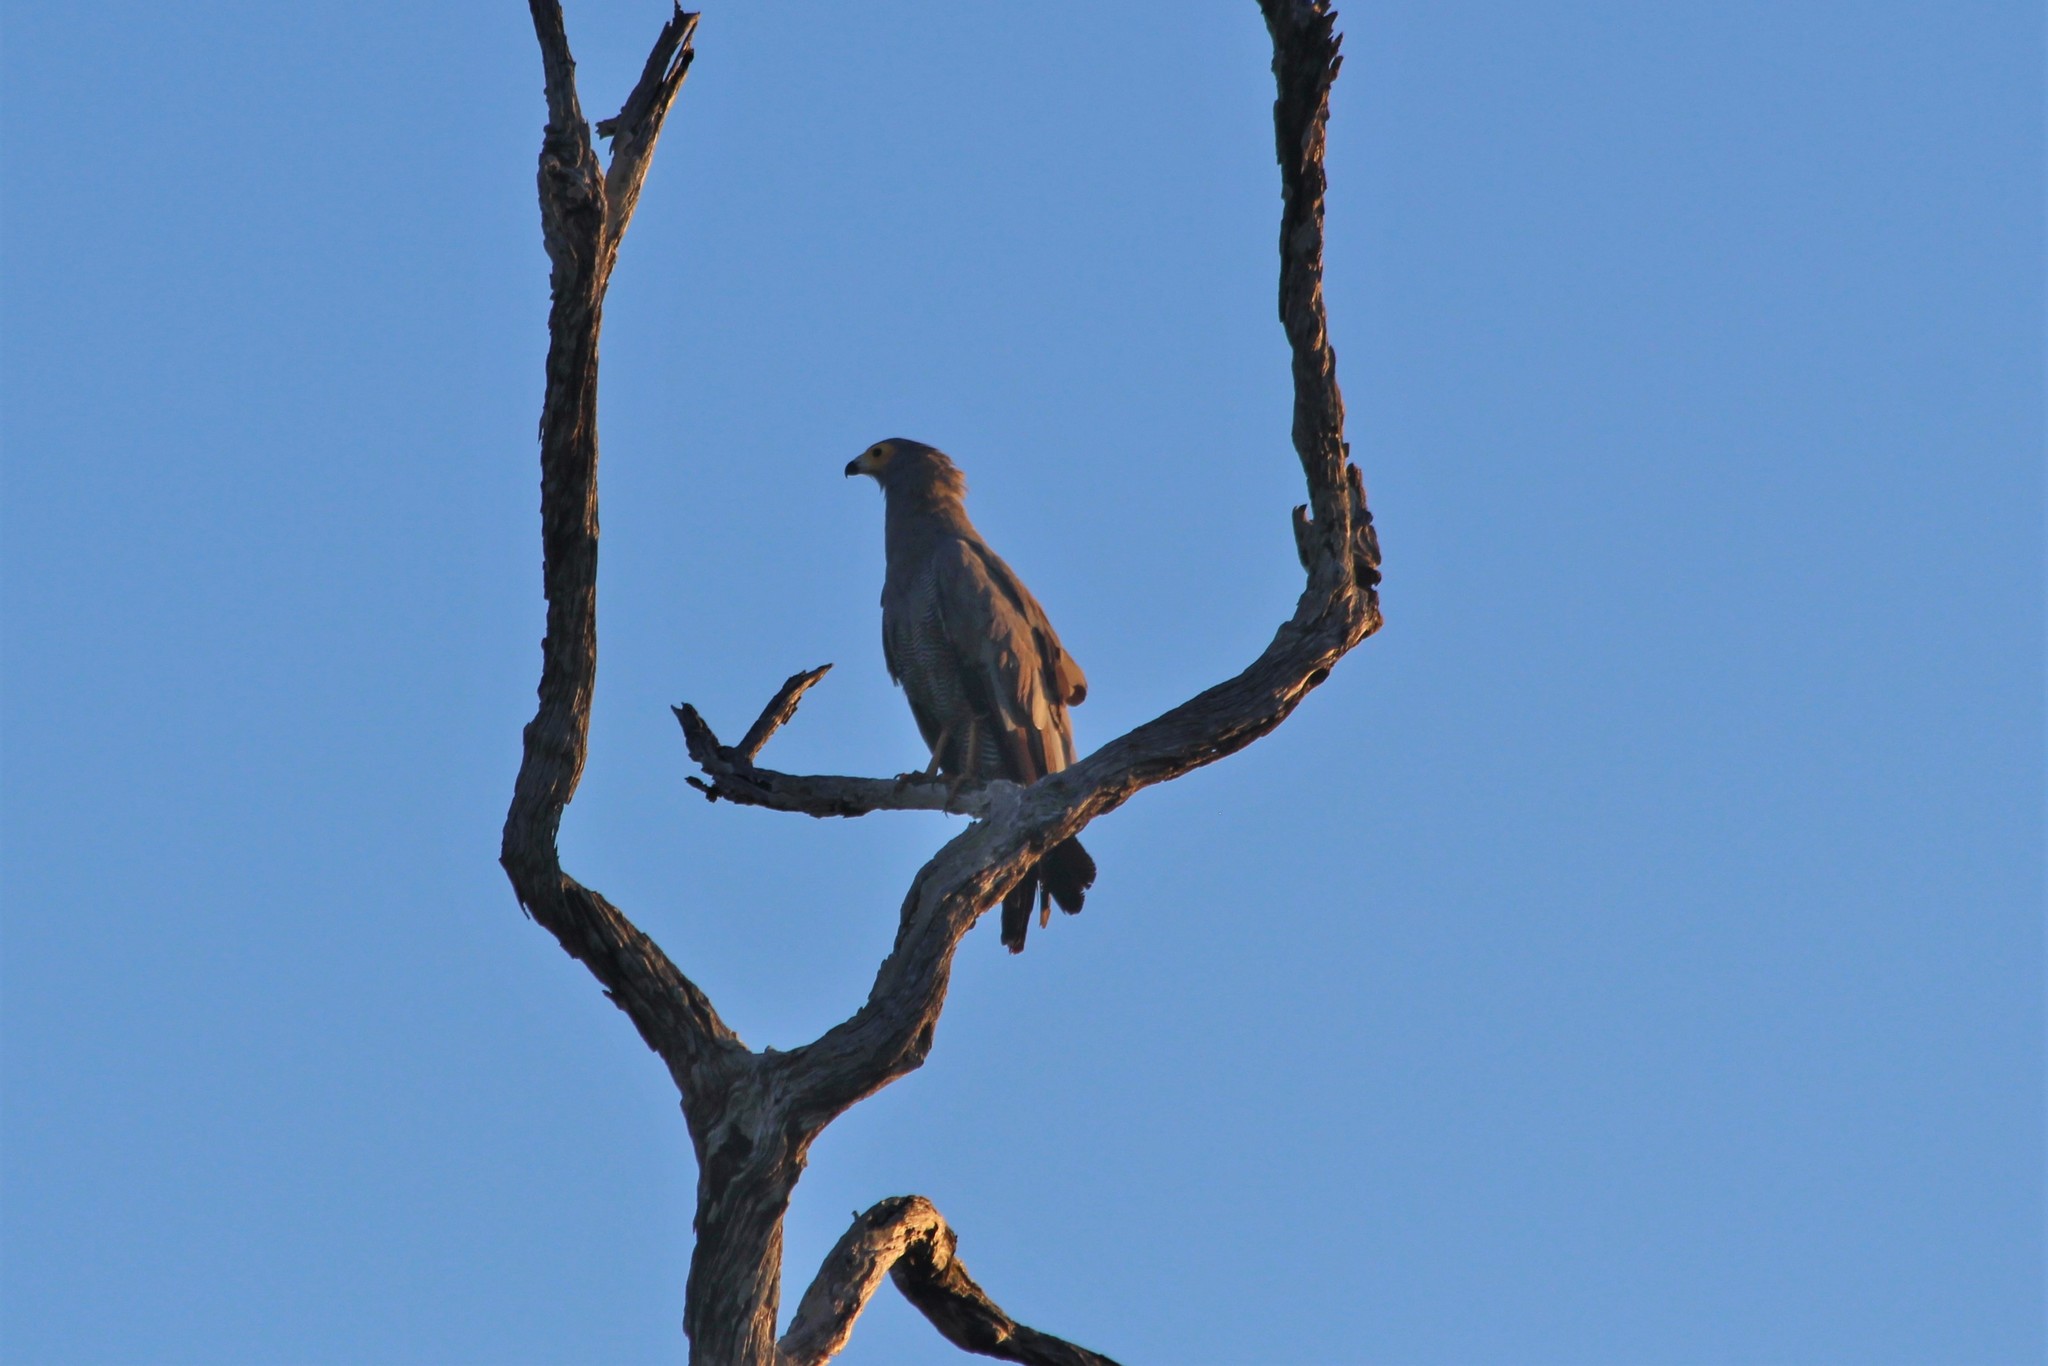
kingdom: Animalia
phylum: Chordata
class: Aves
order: Accipitriformes
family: Accipitridae
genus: Polyboroides
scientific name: Polyboroides typus
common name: African harrier-hawk
